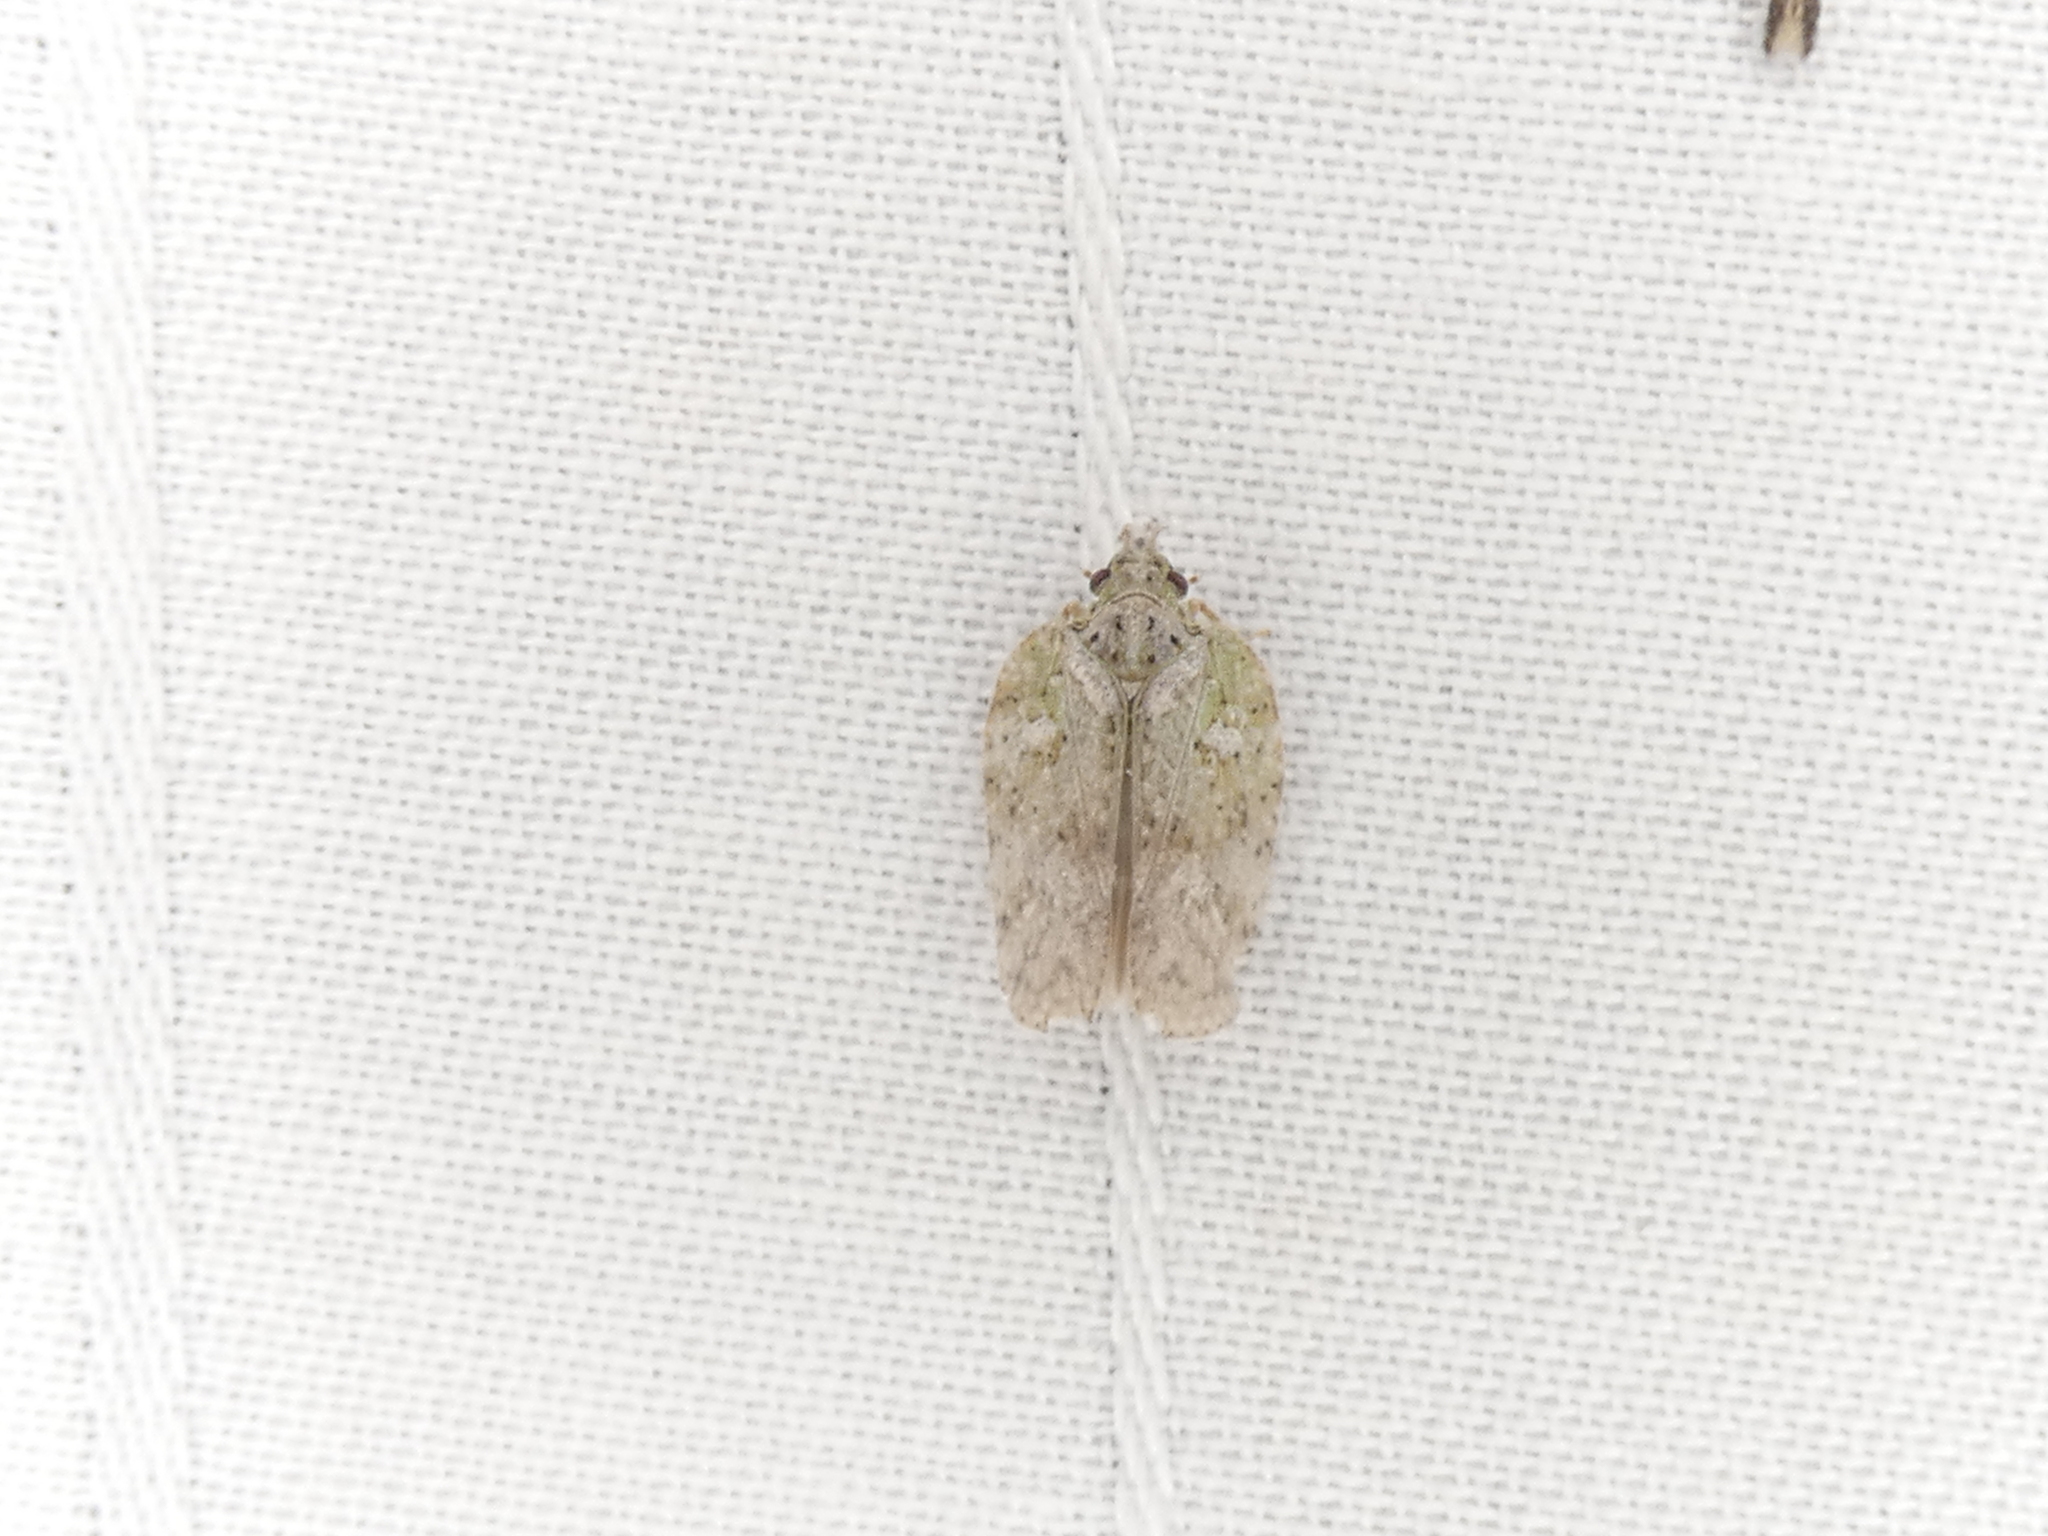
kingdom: Animalia
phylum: Arthropoda
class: Insecta
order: Hemiptera
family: Flatidae
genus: Flatoidinus
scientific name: Flatoidinus punctatus
